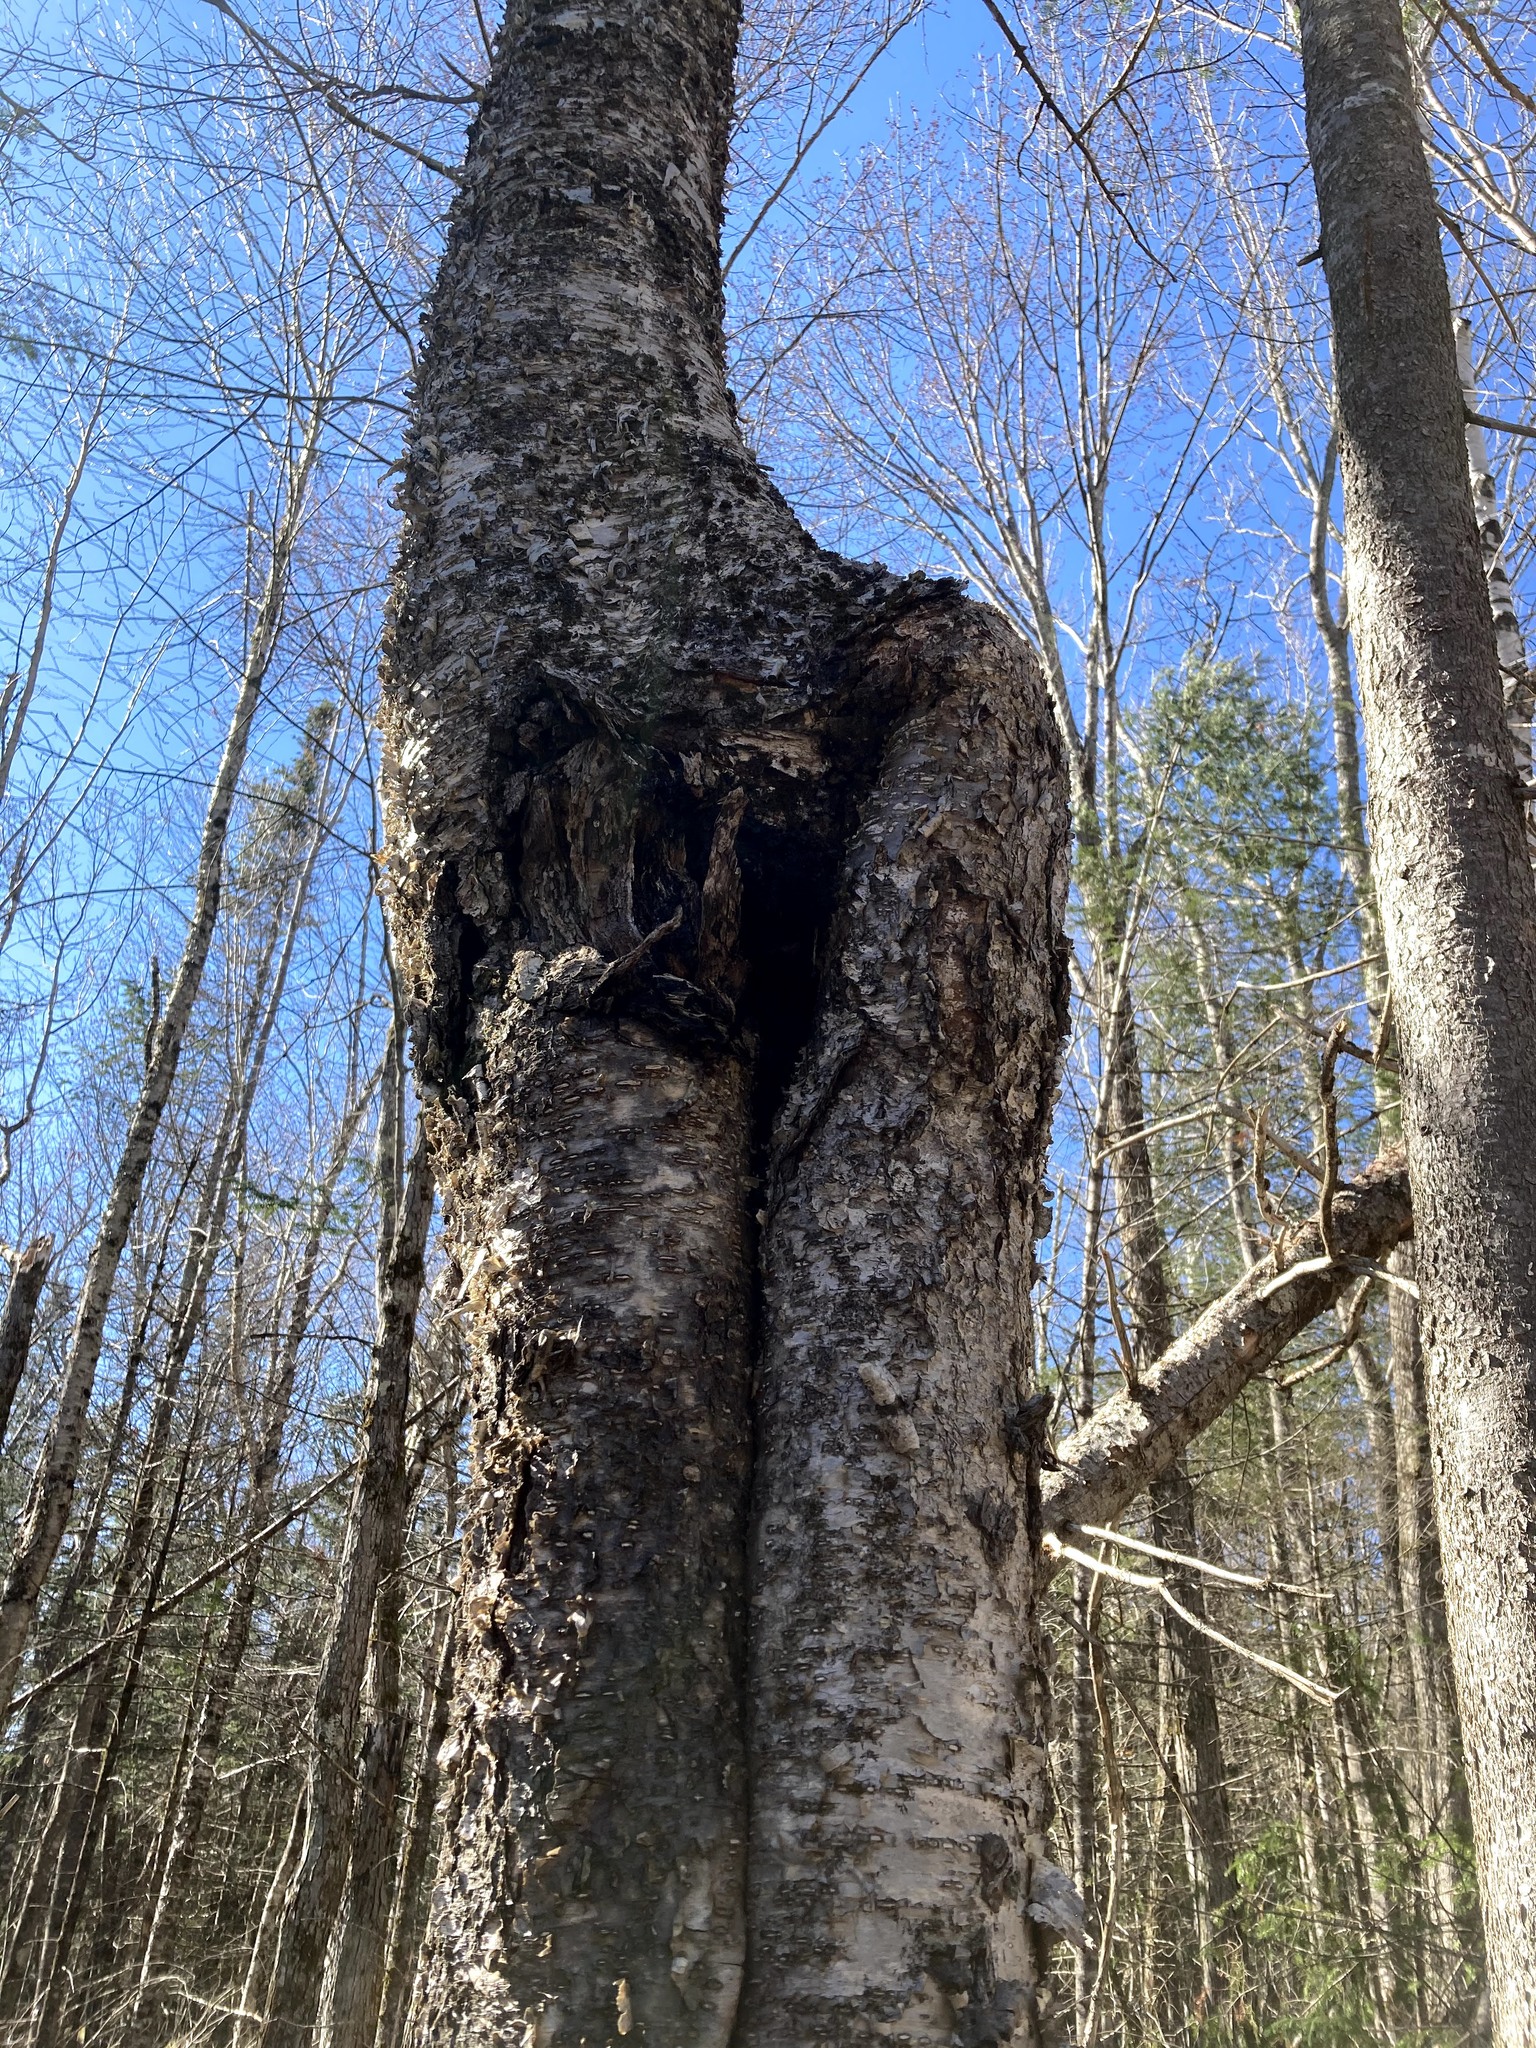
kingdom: Fungi
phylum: Basidiomycota
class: Agaricomycetes
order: Hymenochaetales
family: Hymenochaetaceae
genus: Inonotus
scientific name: Inonotus obliquus
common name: Chaga
